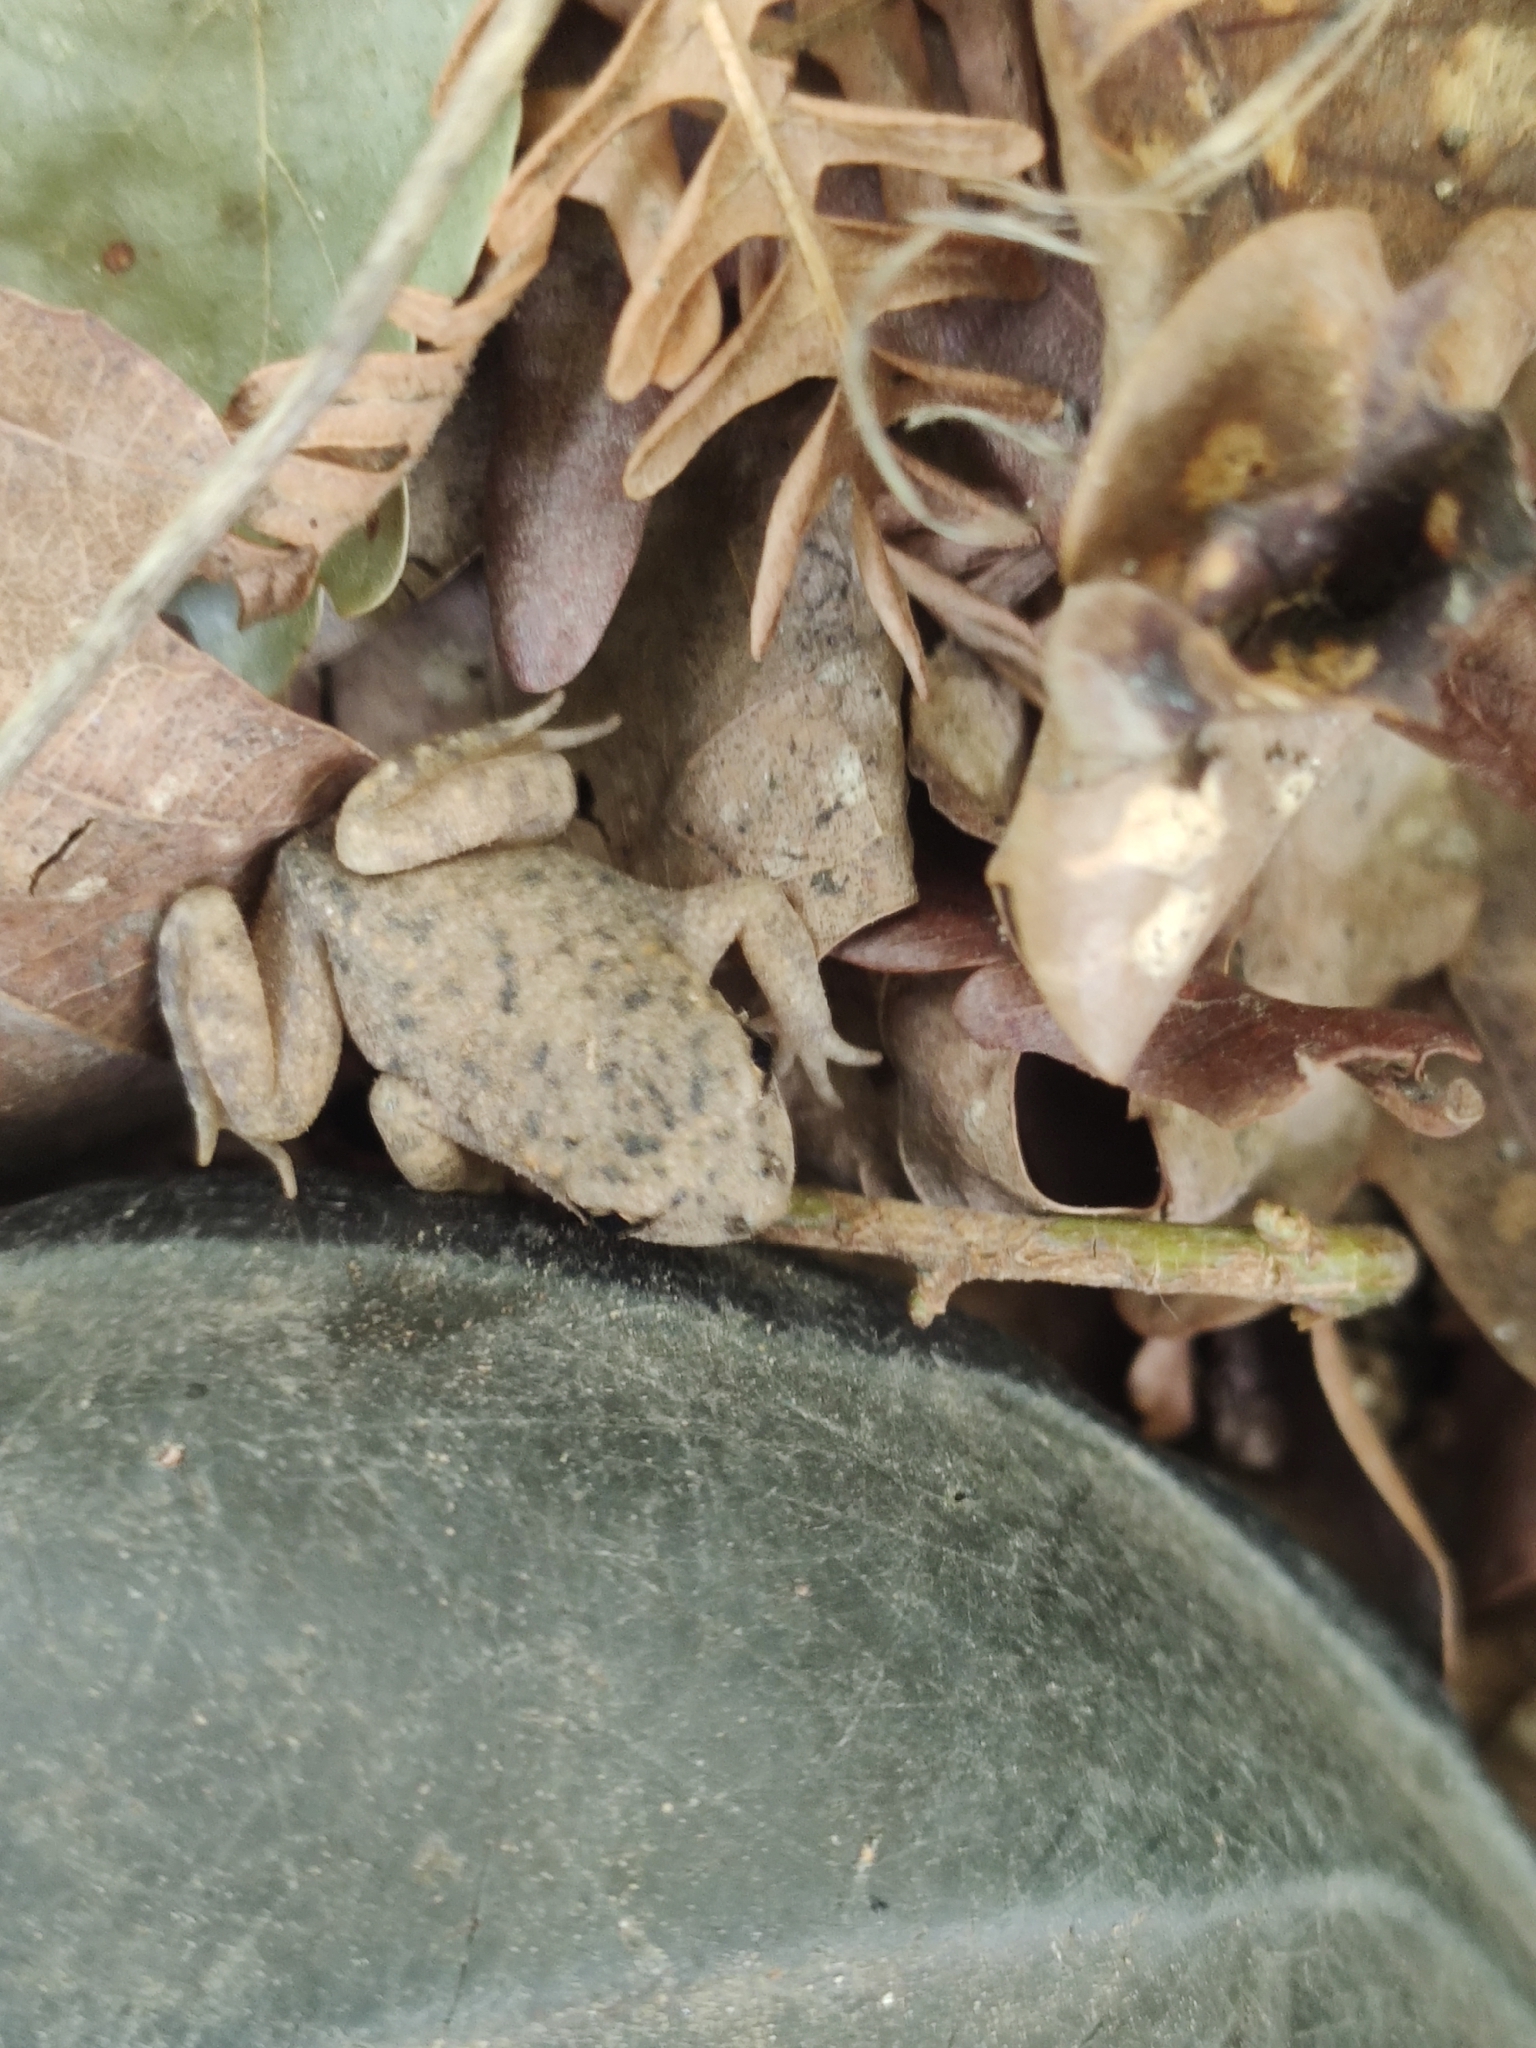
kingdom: Animalia
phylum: Chordata
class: Amphibia
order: Anura
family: Alytidae
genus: Alytes
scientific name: Alytes obstetricans
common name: Midwife toad
